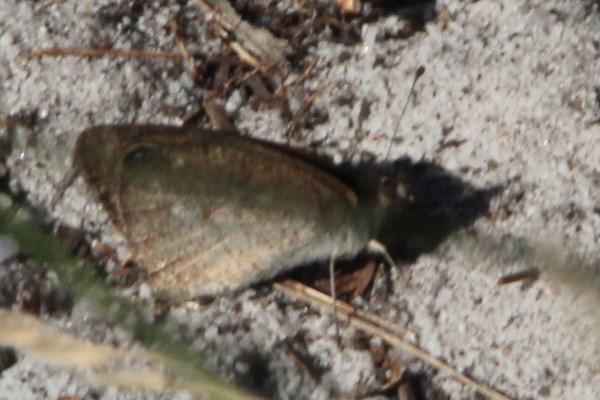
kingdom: Animalia
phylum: Arthropoda
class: Insecta
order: Lepidoptera
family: Nymphalidae
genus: Stygionympha
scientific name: Stygionympha vigilans
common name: Western hillside brown
